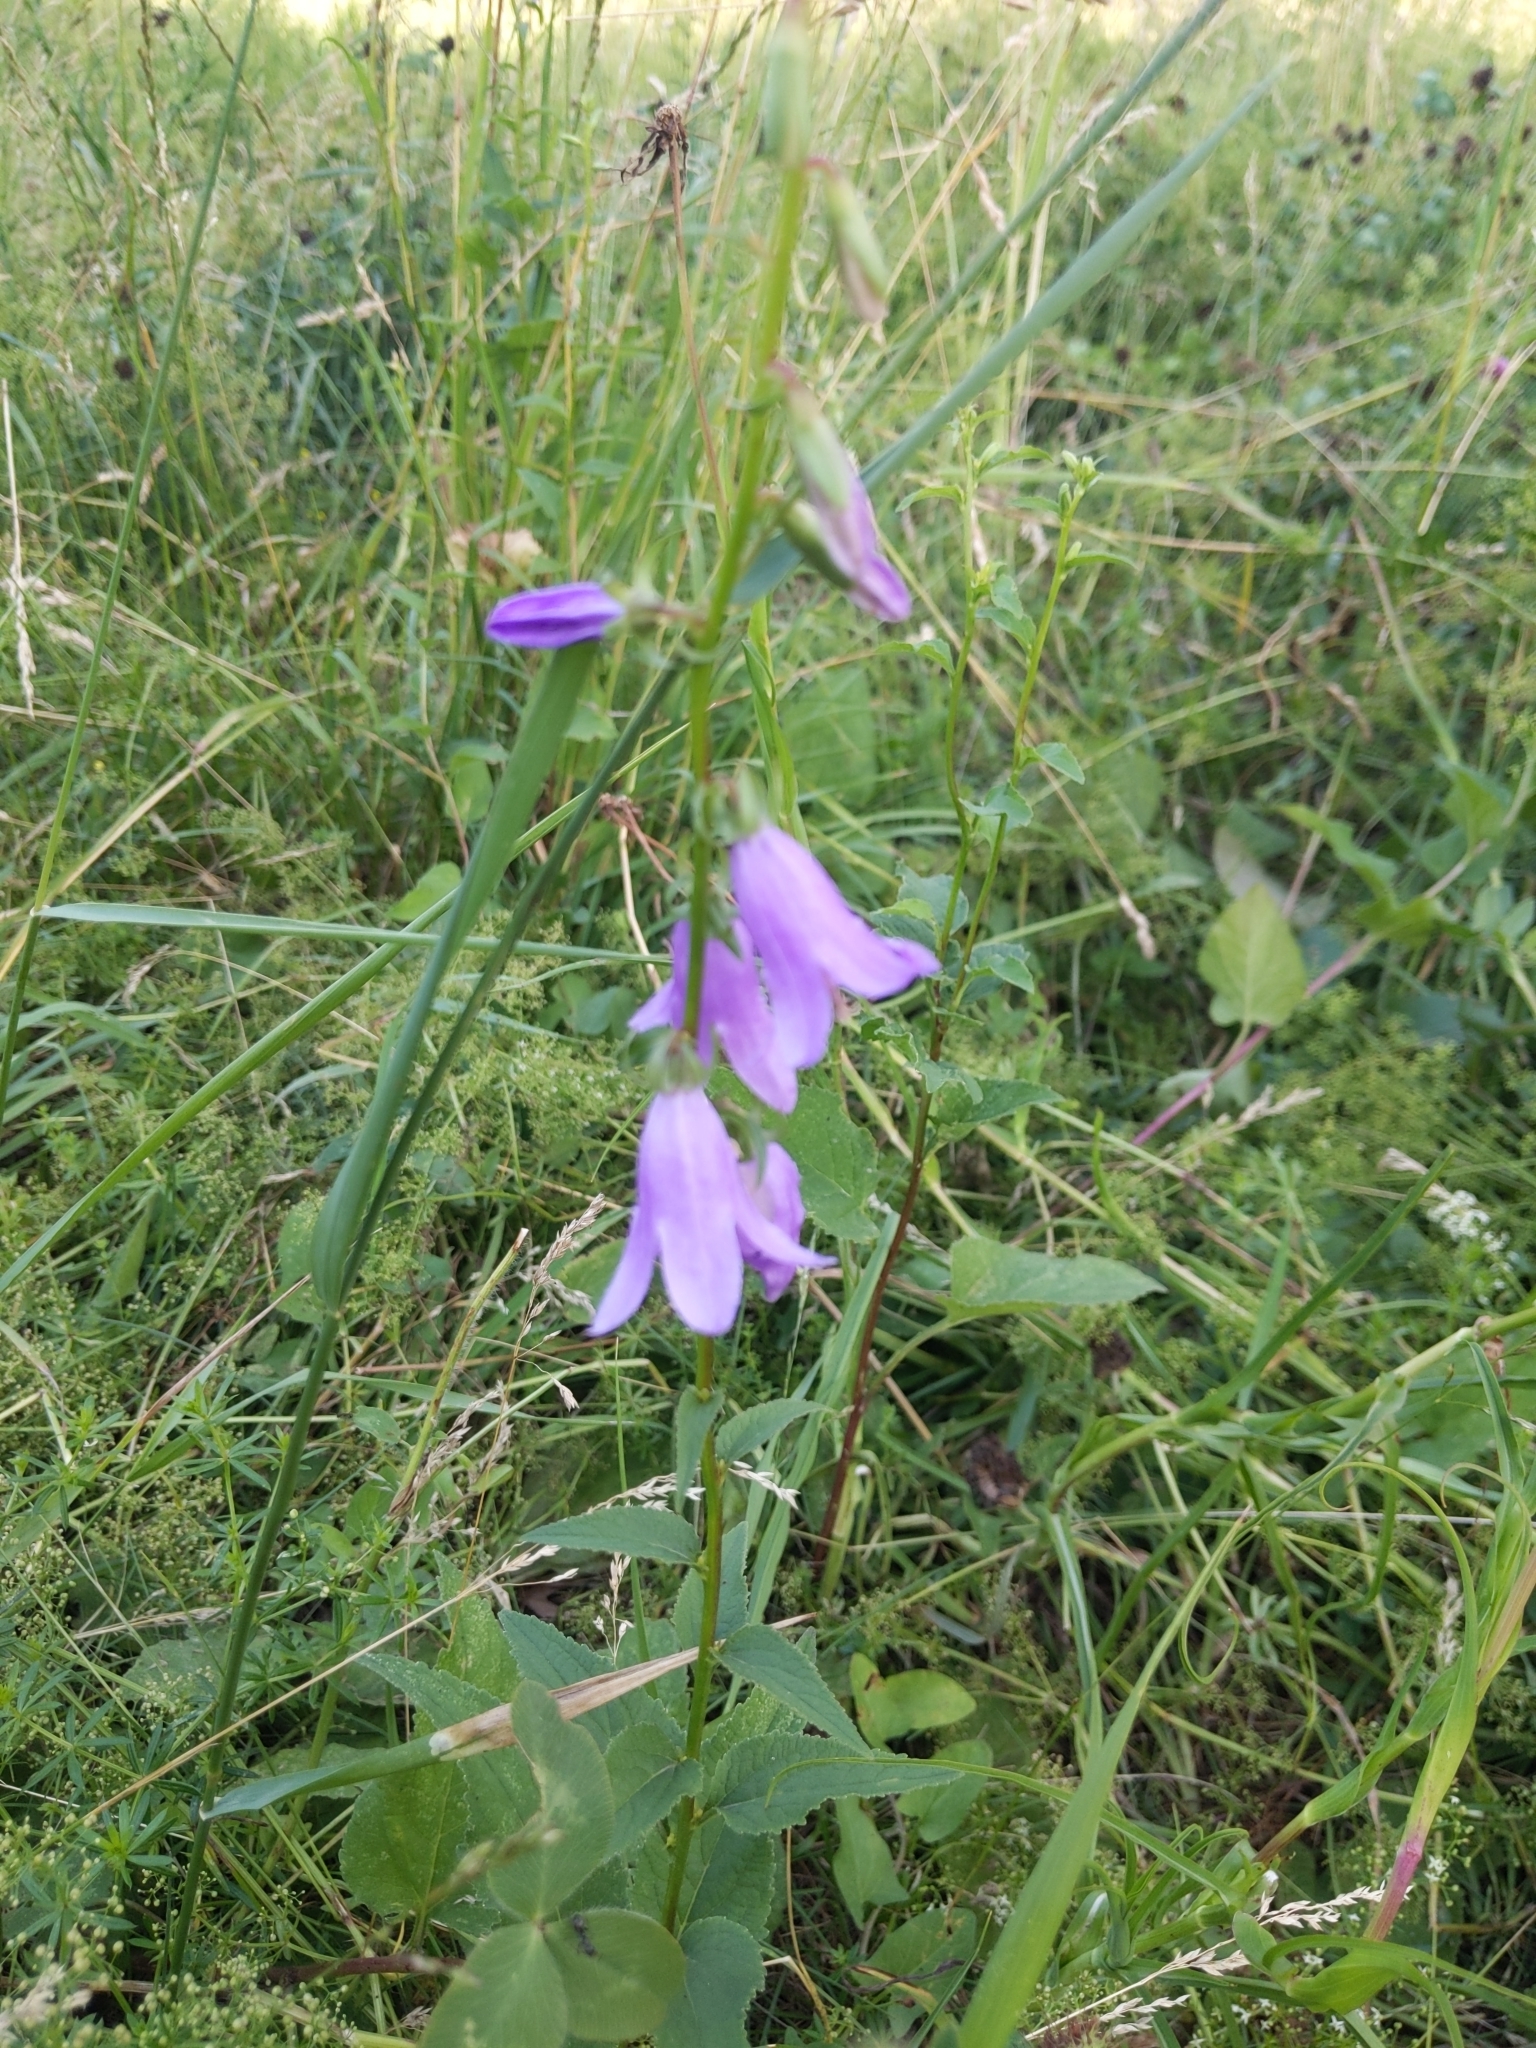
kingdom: Plantae
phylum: Tracheophyta
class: Magnoliopsida
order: Asterales
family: Campanulaceae
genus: Campanula
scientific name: Campanula rapunculoides
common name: Creeping bellflower
